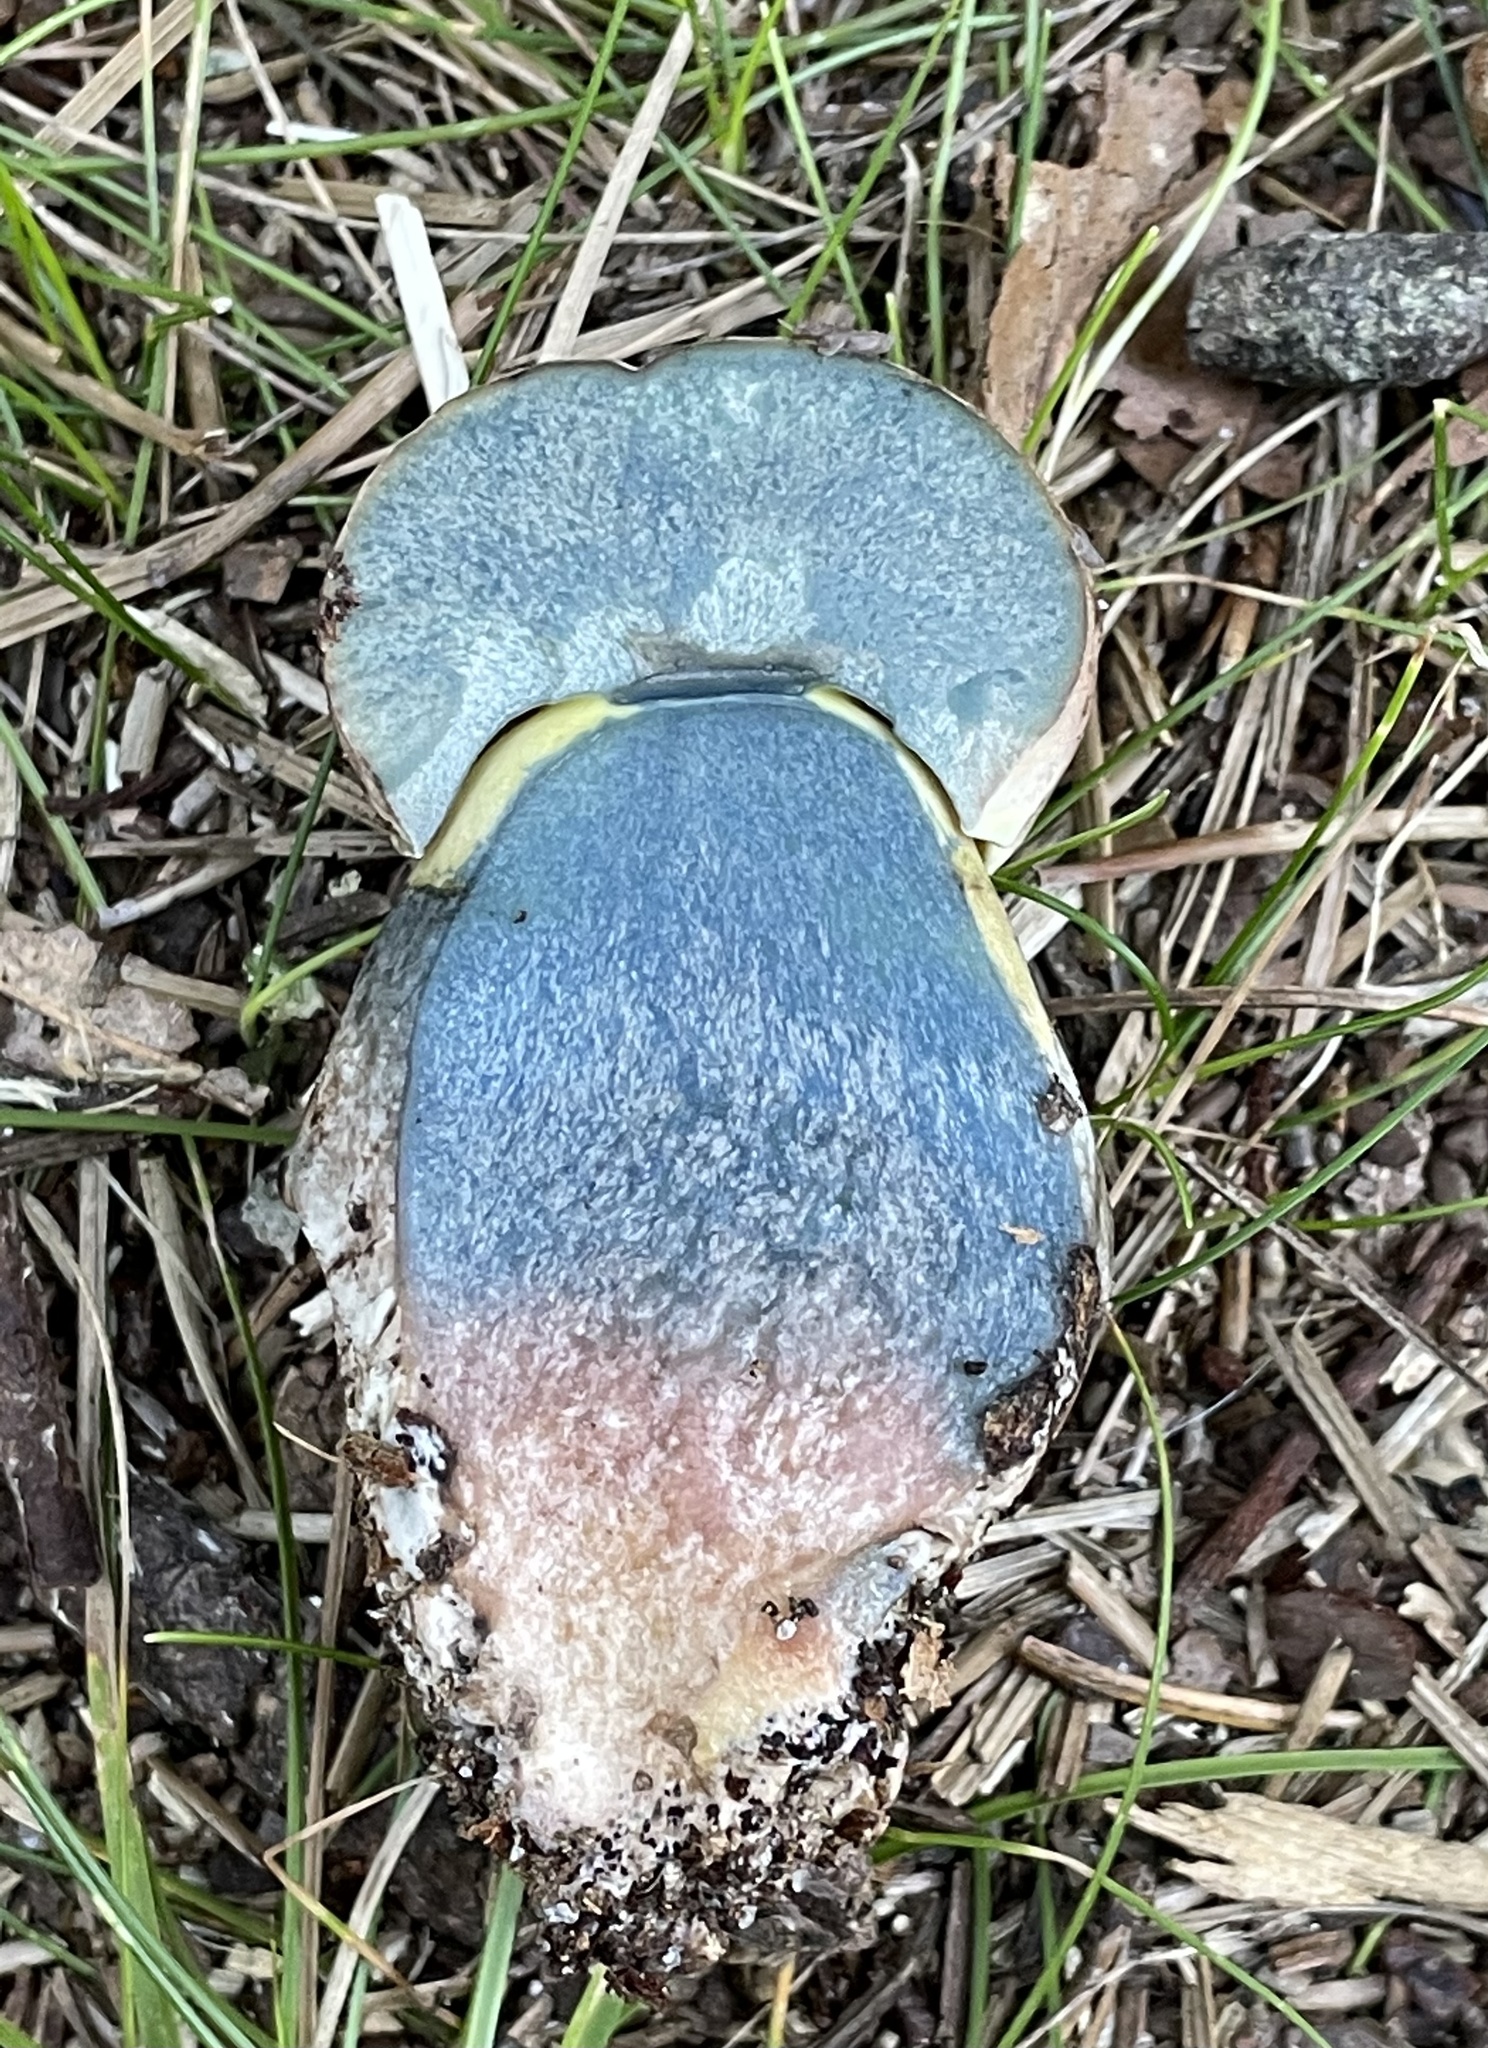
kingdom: Fungi
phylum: Basidiomycota
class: Agaricomycetes
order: Boletales
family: Boletaceae
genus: Boletus
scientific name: Boletus
